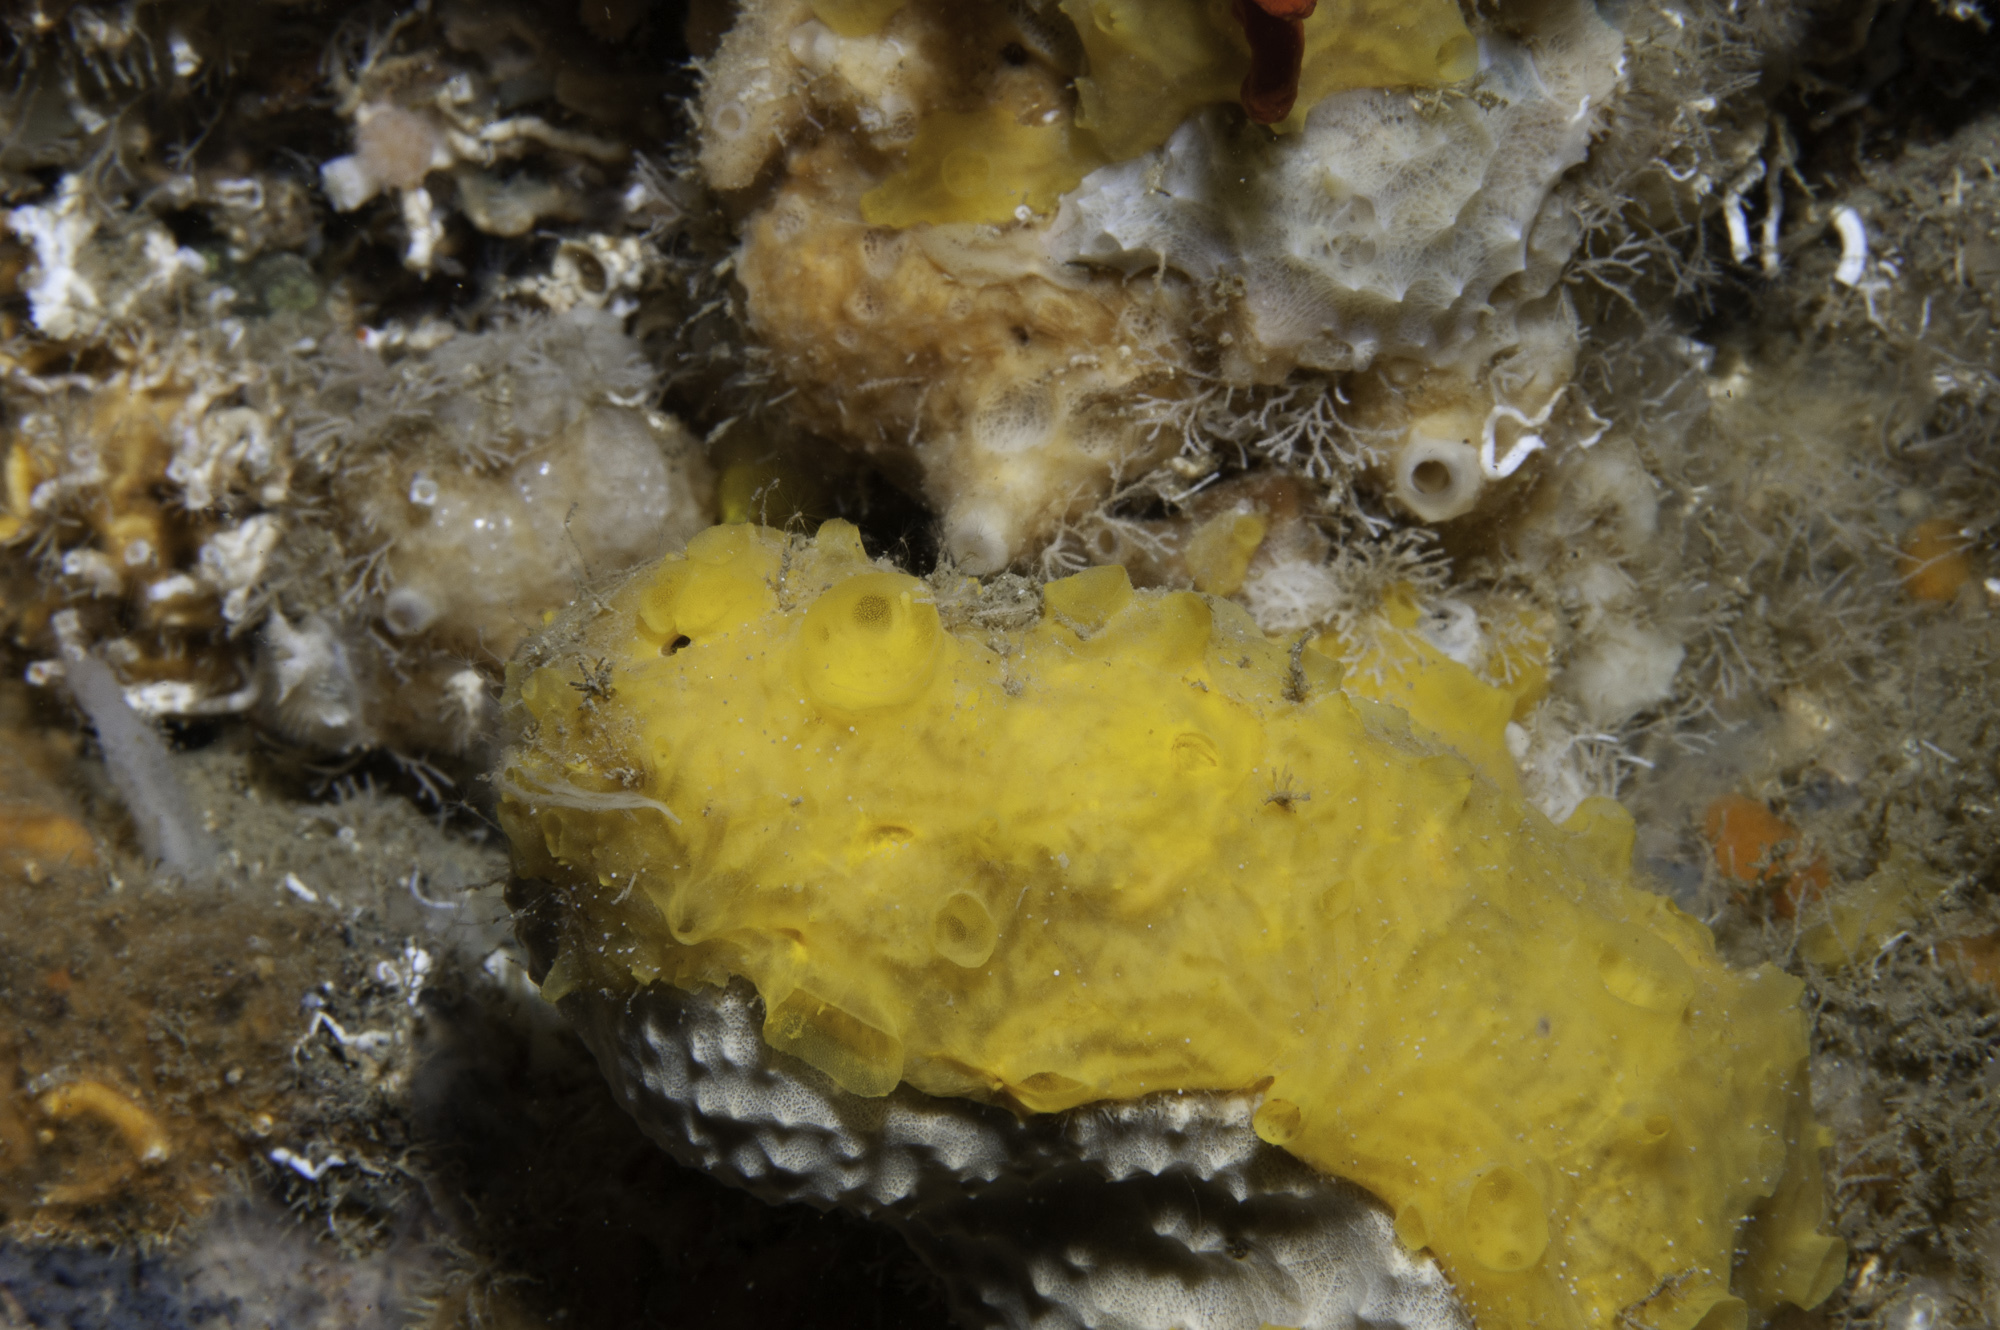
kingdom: Animalia
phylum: Porifera
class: Demospongiae
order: Poecilosclerida
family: Crellidae
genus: Crella
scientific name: Crella pulvinar
